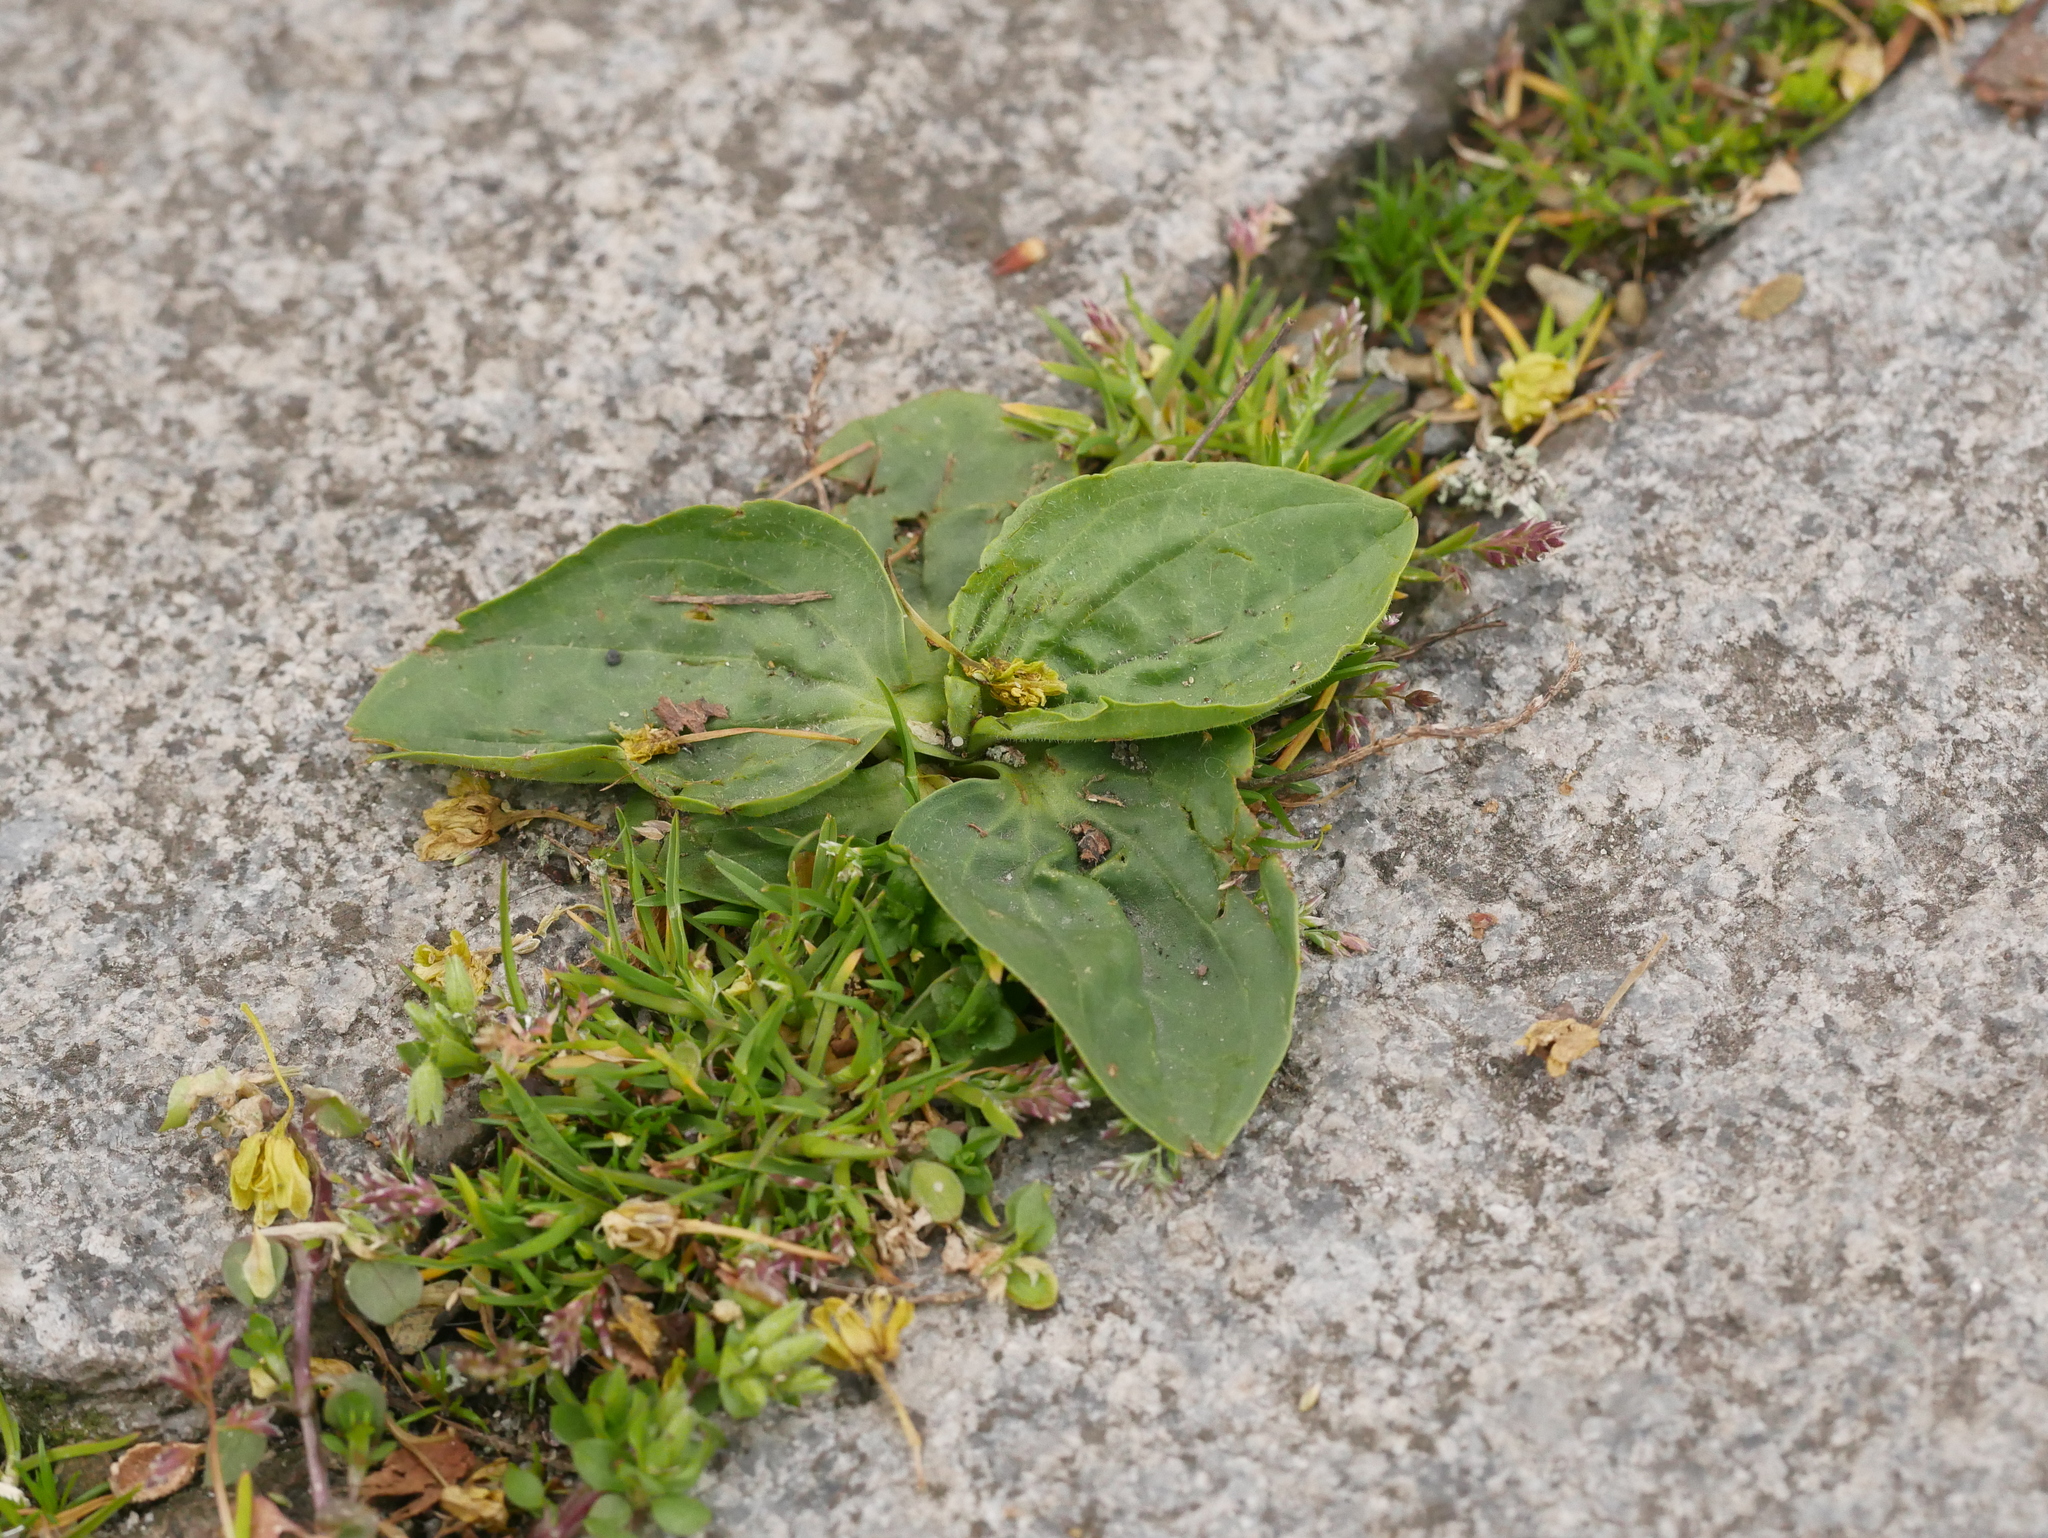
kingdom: Plantae
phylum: Tracheophyta
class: Magnoliopsida
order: Lamiales
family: Plantaginaceae
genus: Plantago
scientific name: Plantago major
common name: Common plantain
